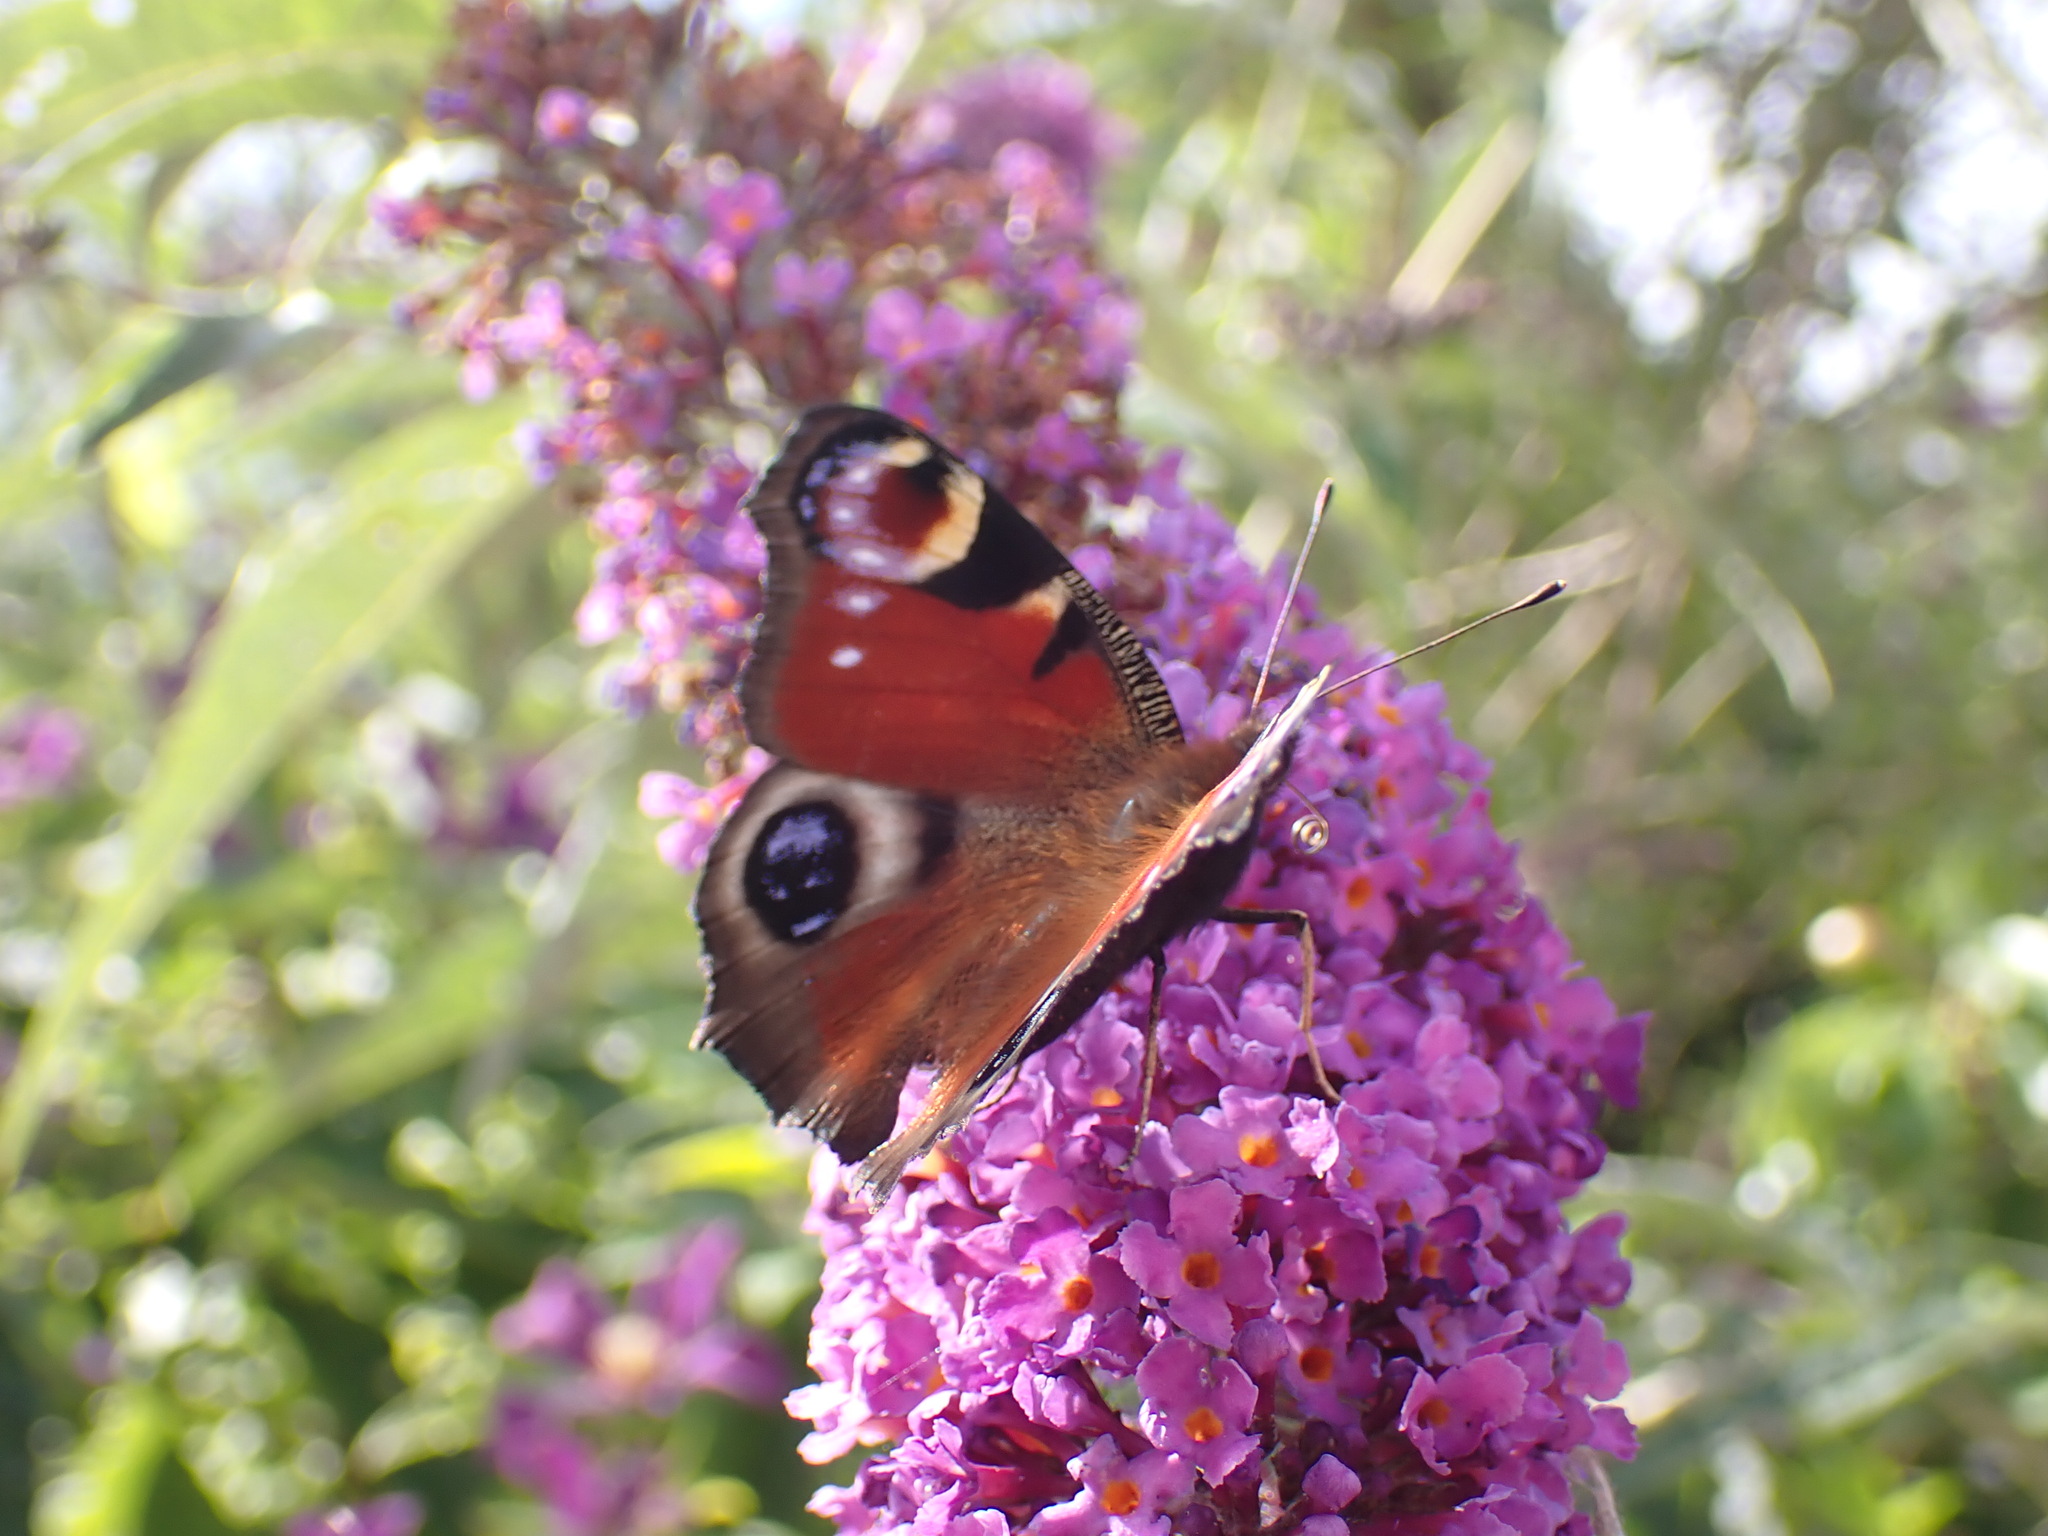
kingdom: Animalia
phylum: Arthropoda
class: Insecta
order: Lepidoptera
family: Nymphalidae
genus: Aglais
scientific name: Aglais io
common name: Peacock
